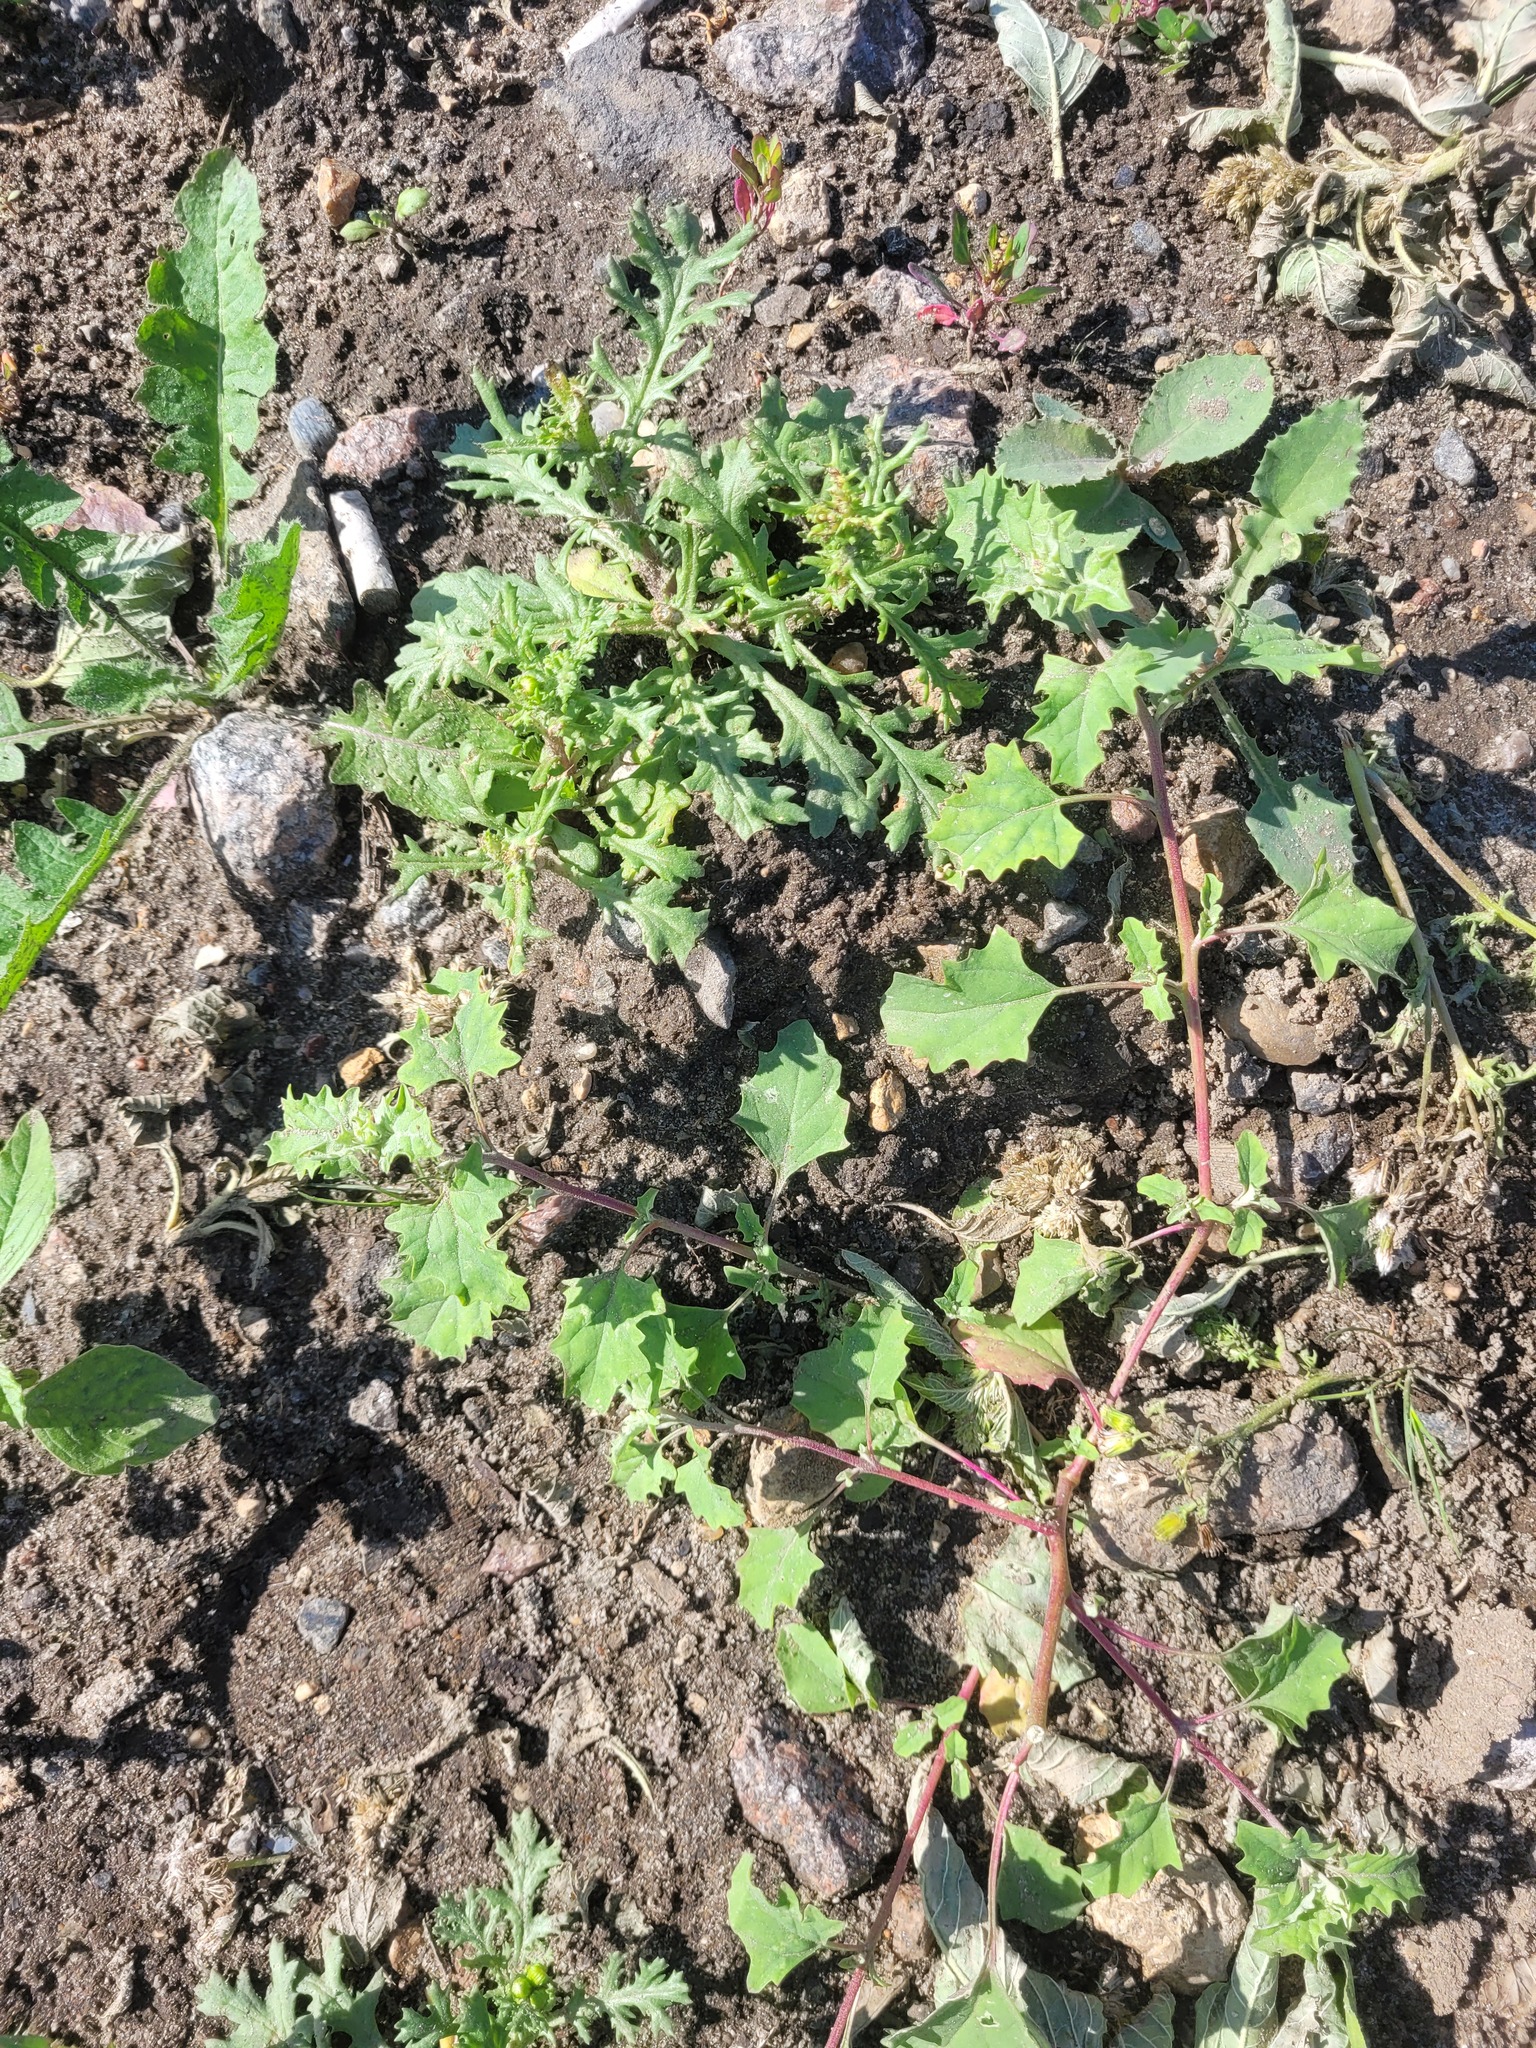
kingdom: Plantae
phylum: Tracheophyta
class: Magnoliopsida
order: Caryophyllales
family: Amaranthaceae
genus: Atriplex
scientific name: Atriplex tatarica
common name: Tatarian orache
